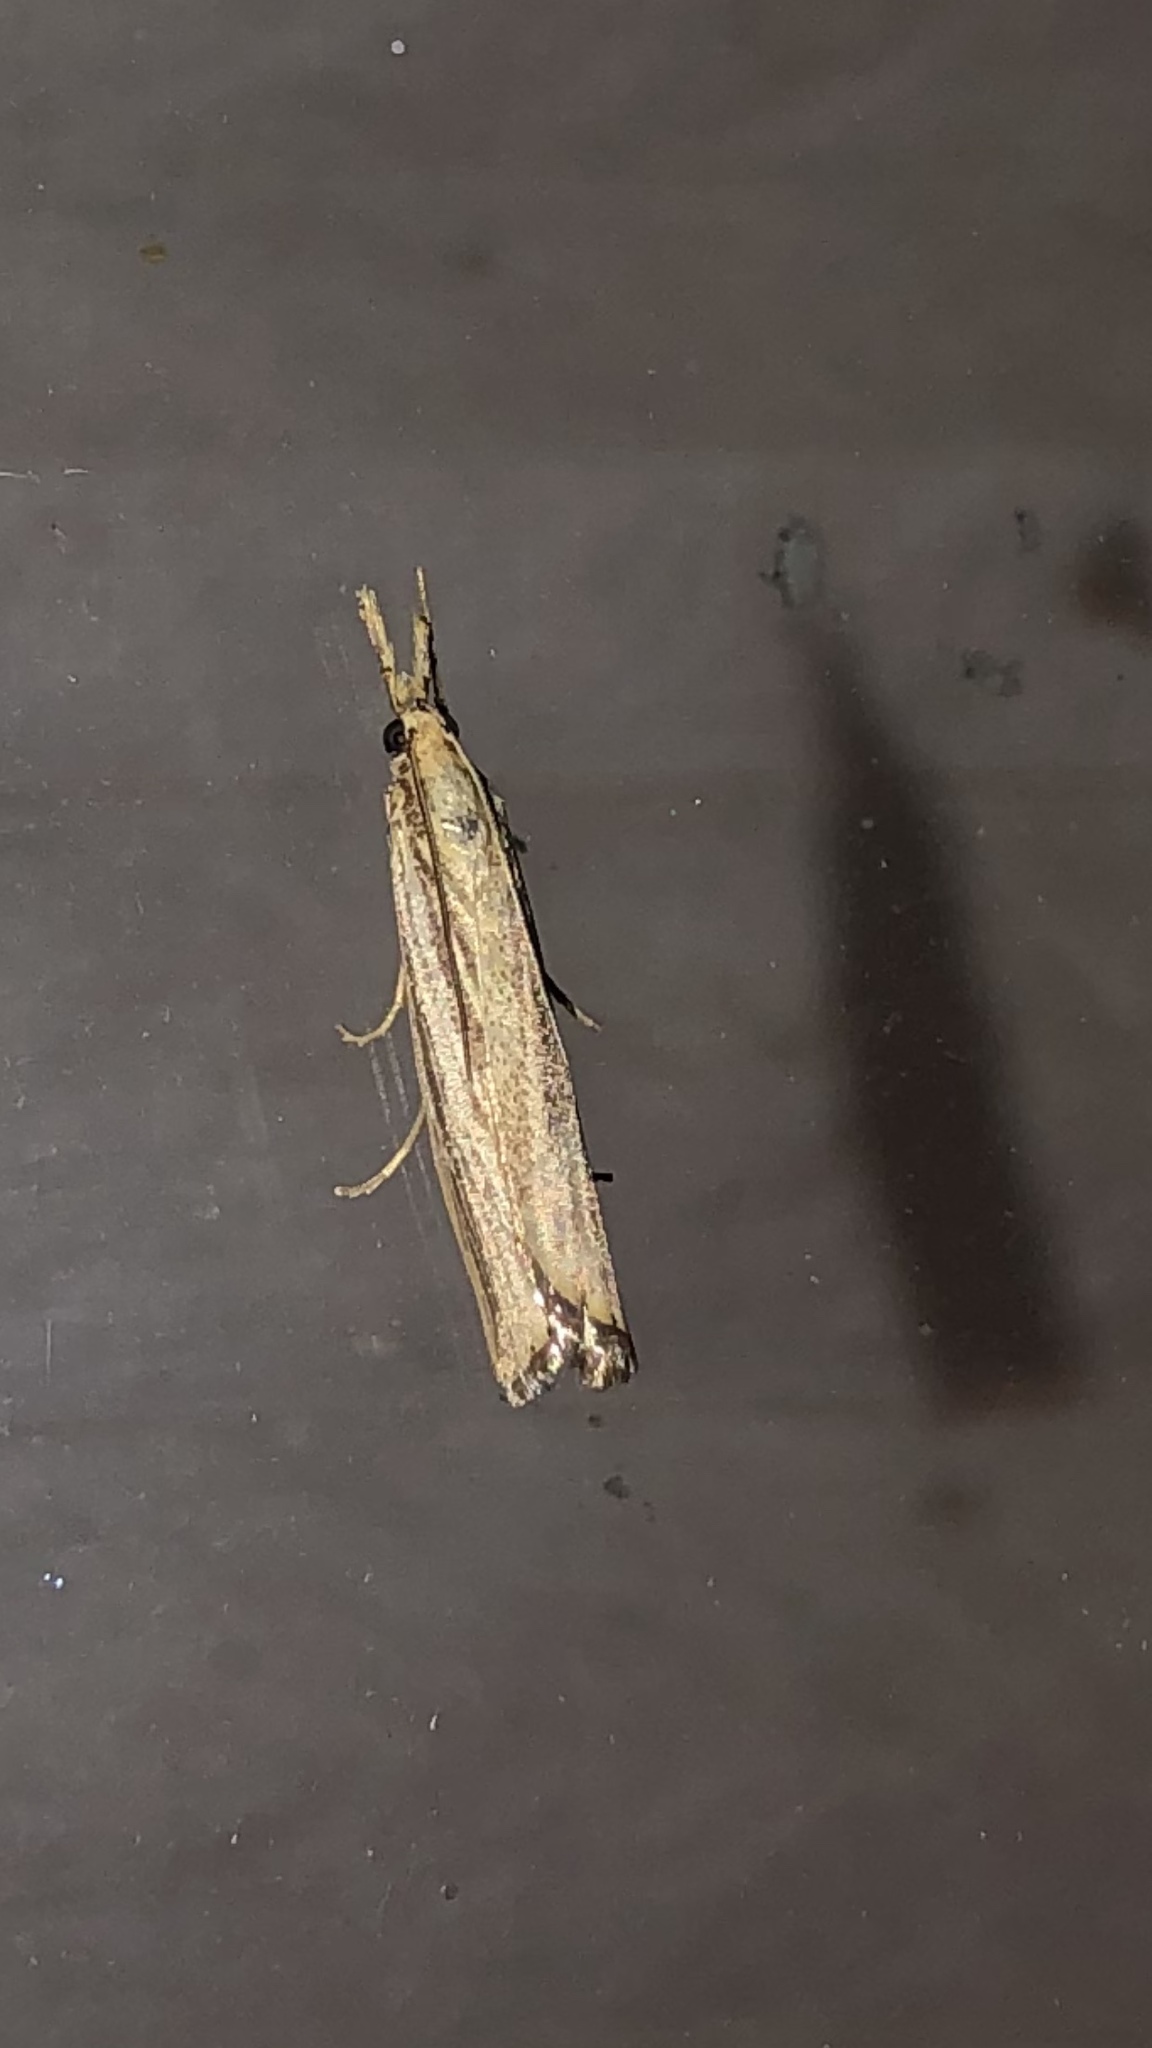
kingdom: Animalia
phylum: Arthropoda
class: Insecta
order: Lepidoptera
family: Crambidae
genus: Agriphila
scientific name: Agriphila vulgivagellus
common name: Vagabond crambus moth
